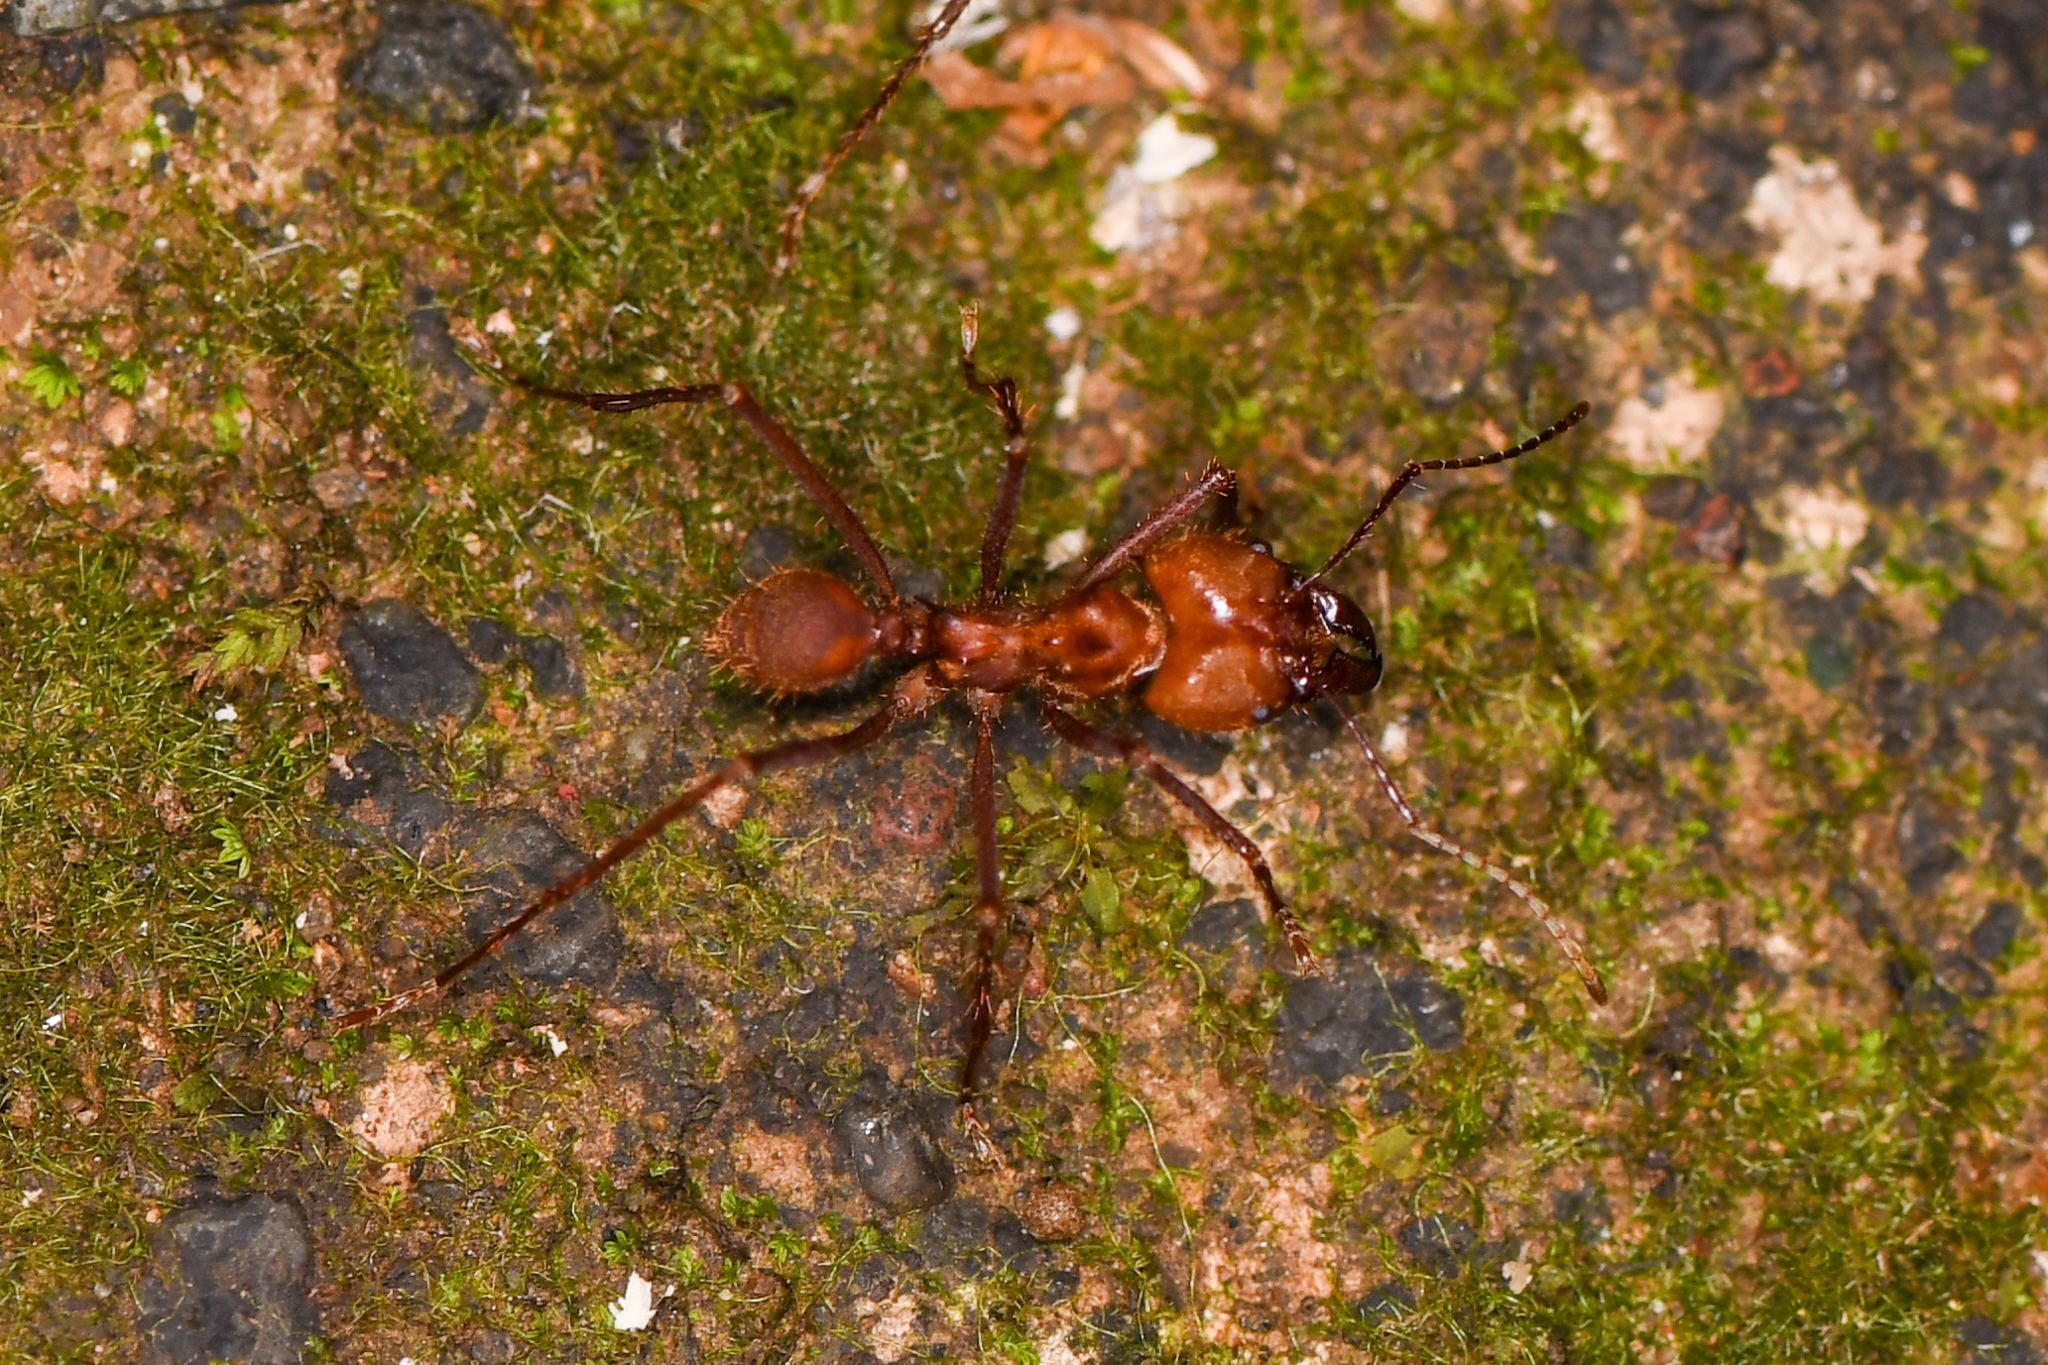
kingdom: Animalia
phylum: Arthropoda
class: Insecta
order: Hymenoptera
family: Formicidae
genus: Atta
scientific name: Atta cephalotes
